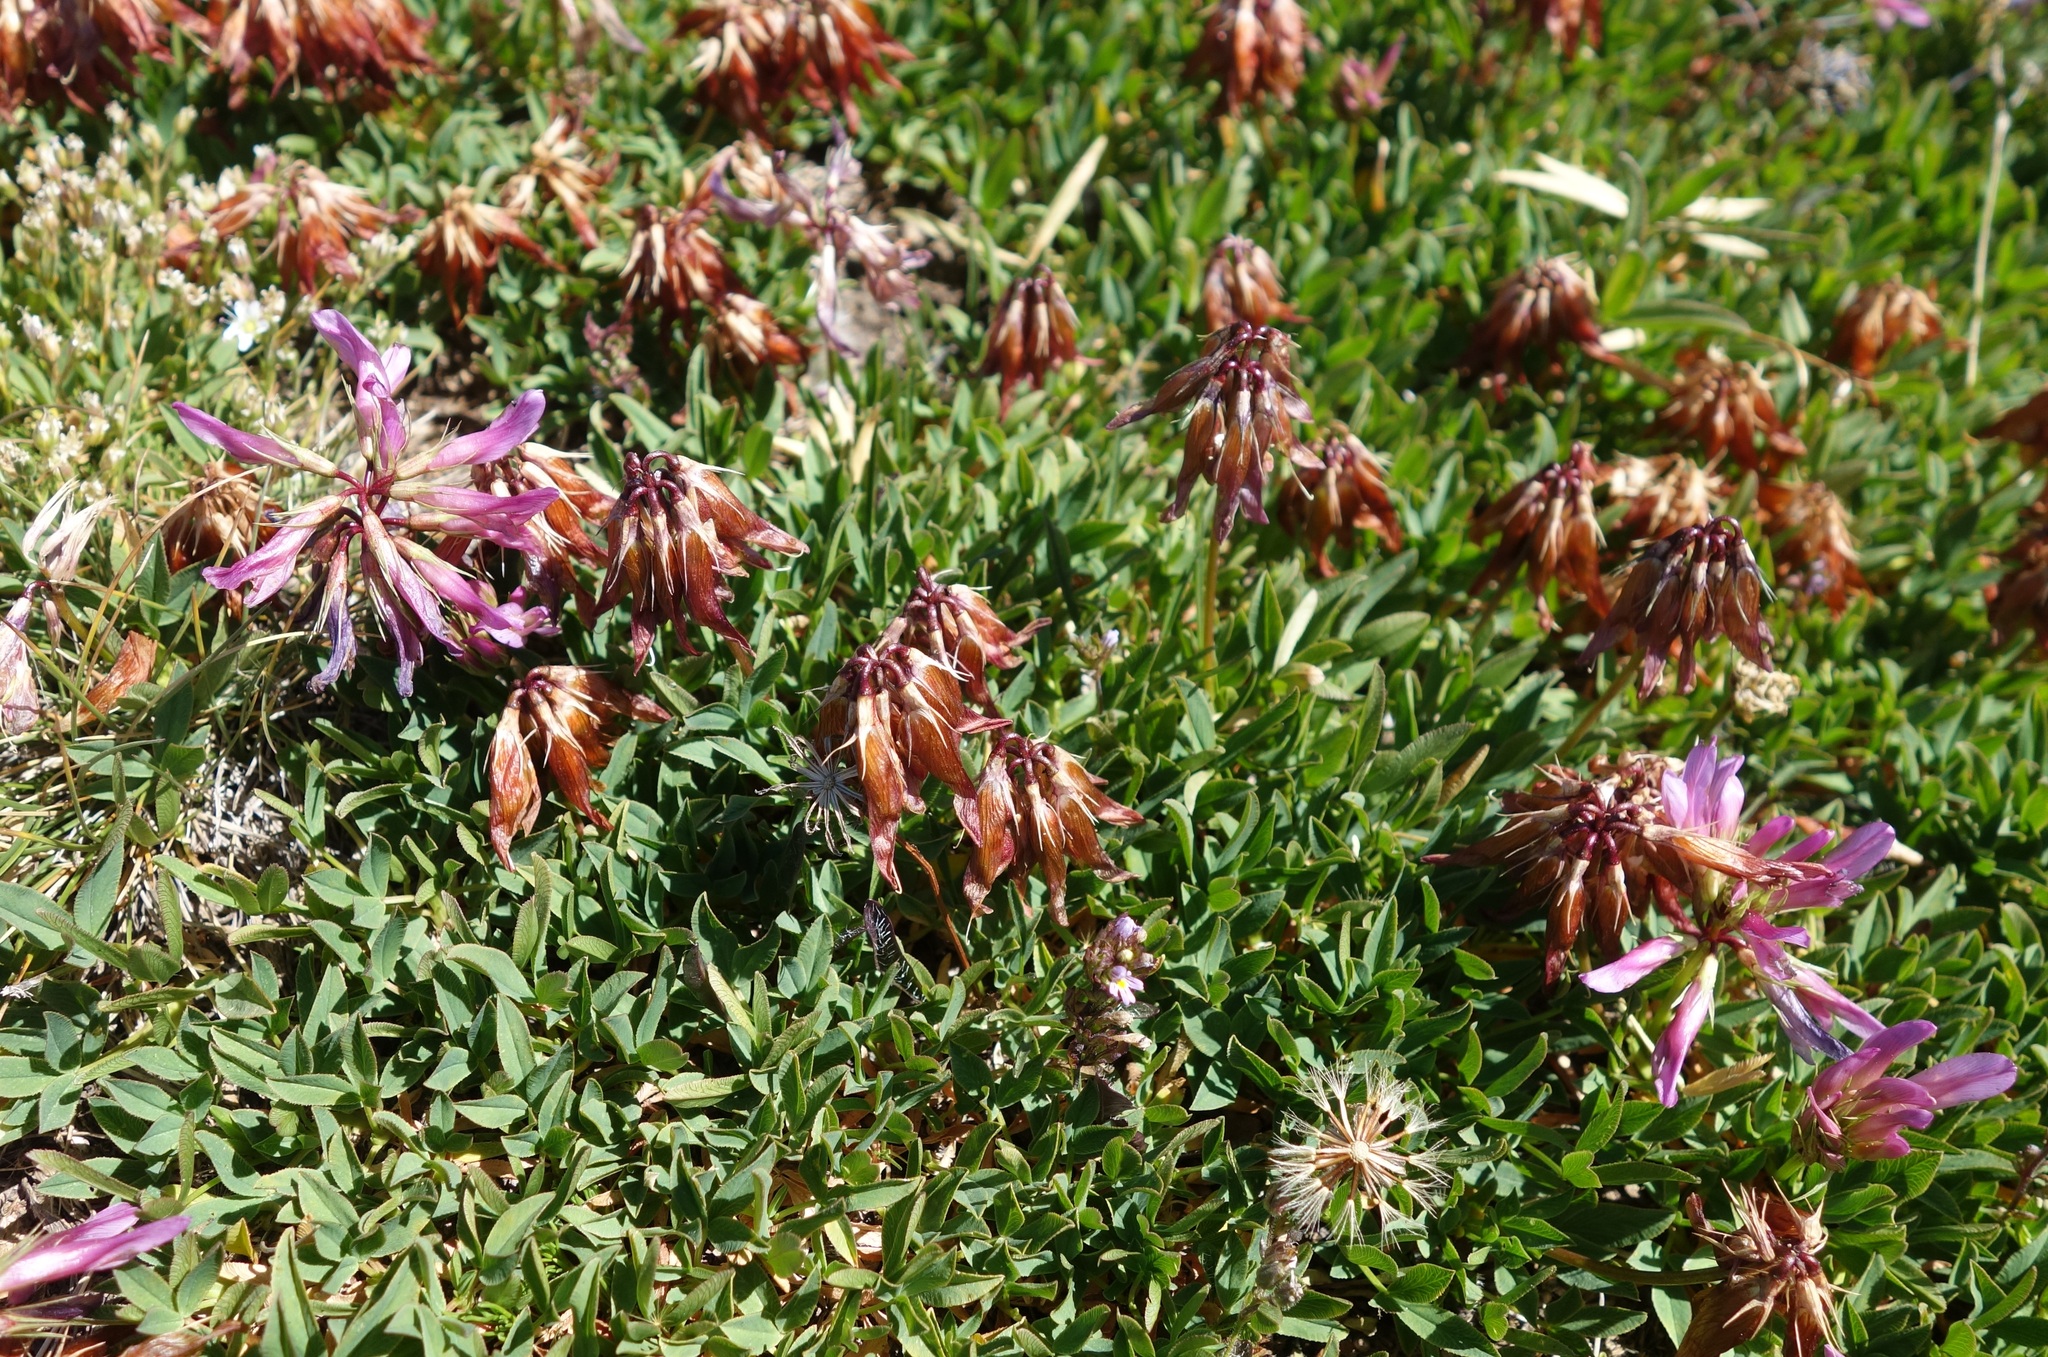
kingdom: Plantae
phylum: Tracheophyta
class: Magnoliopsida
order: Fabales
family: Fabaceae
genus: Trifolium
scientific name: Trifolium alpinum
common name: Alpine clover
